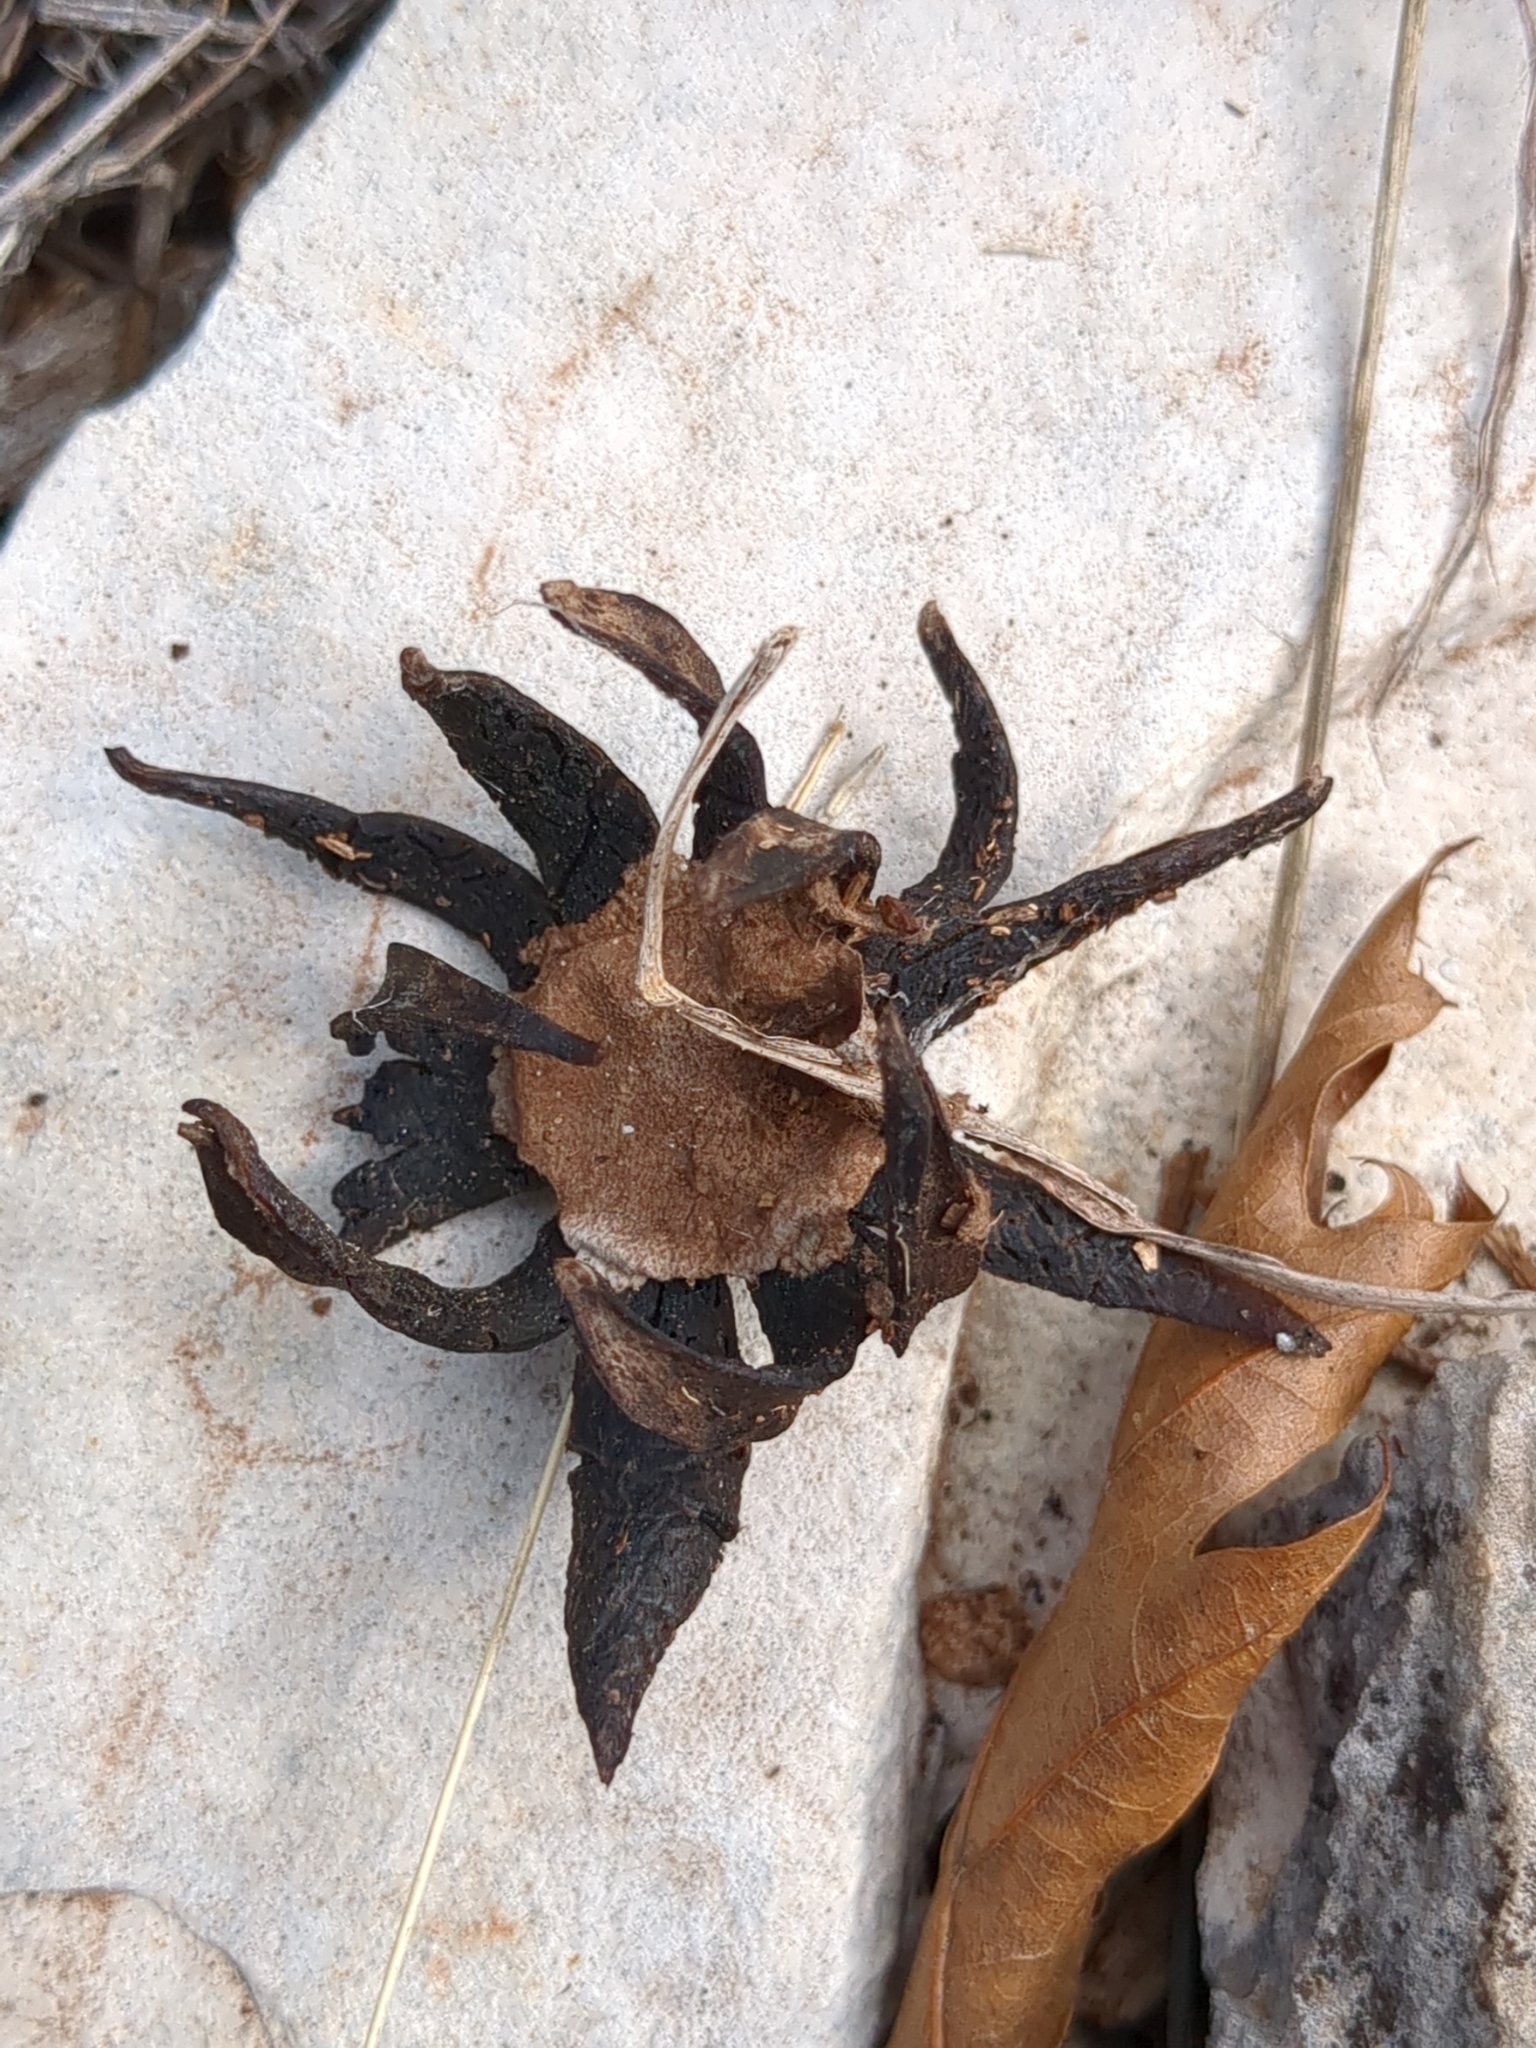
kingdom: Fungi
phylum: Basidiomycota
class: Agaricomycetes
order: Boletales
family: Diplocystidiaceae
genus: Astraeus
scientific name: Astraeus morganii
